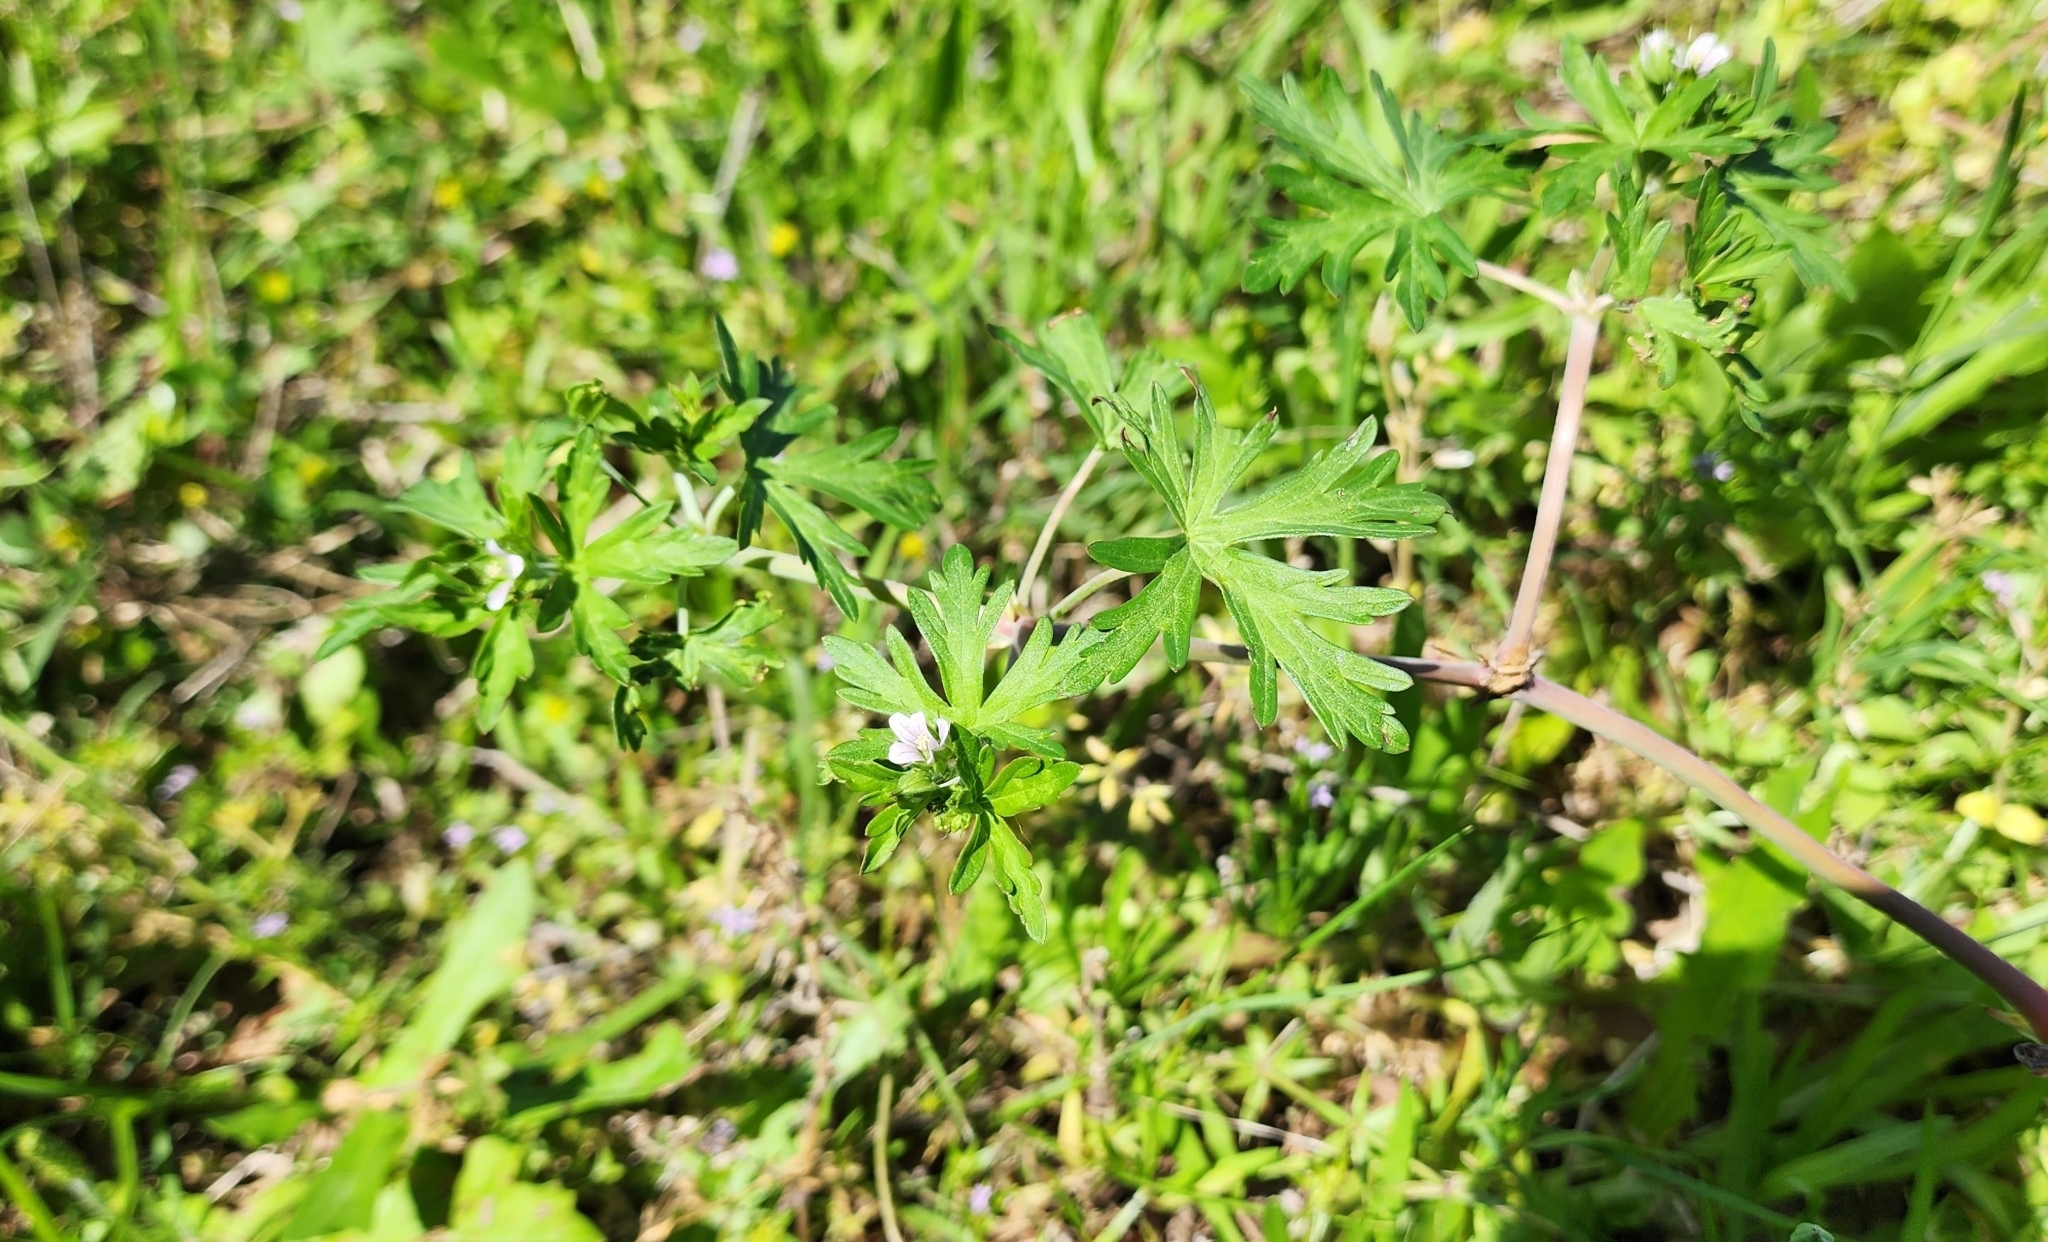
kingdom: Plantae
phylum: Tracheophyta
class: Magnoliopsida
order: Geraniales
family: Geraniaceae
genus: Geranium
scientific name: Geranium carolinianum
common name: Carolina crane's-bill
